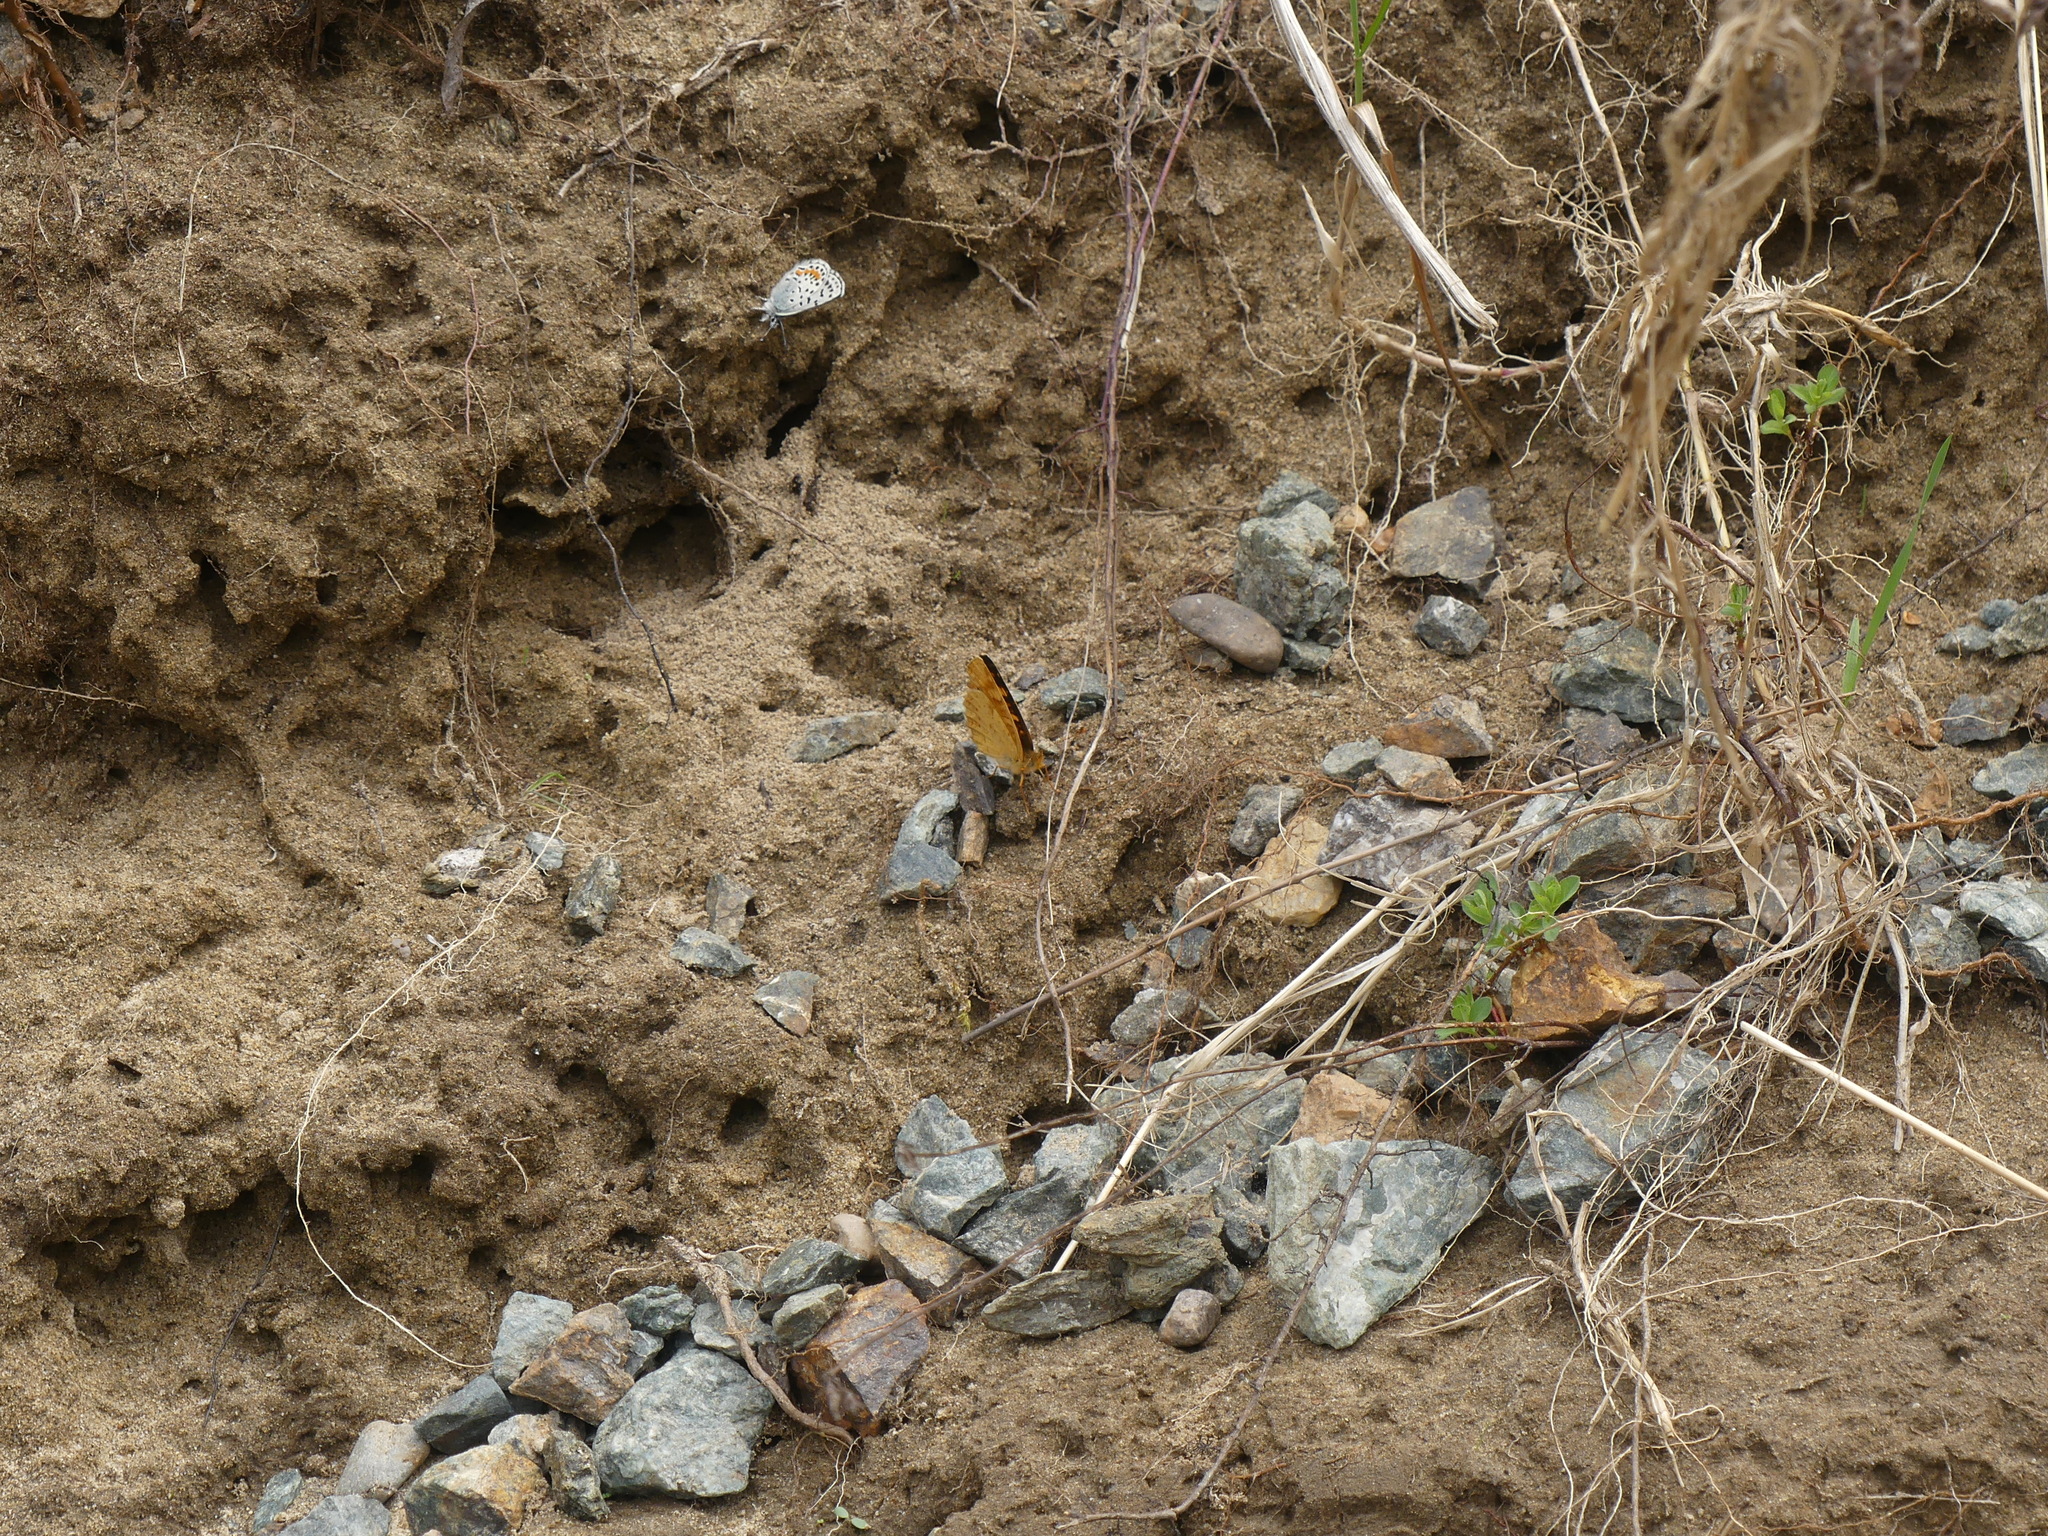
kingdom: Animalia
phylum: Arthropoda
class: Insecta
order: Lepidoptera
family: Nymphalidae
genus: Phyciodes
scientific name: Phyciodes tharos
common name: Pearl crescent
